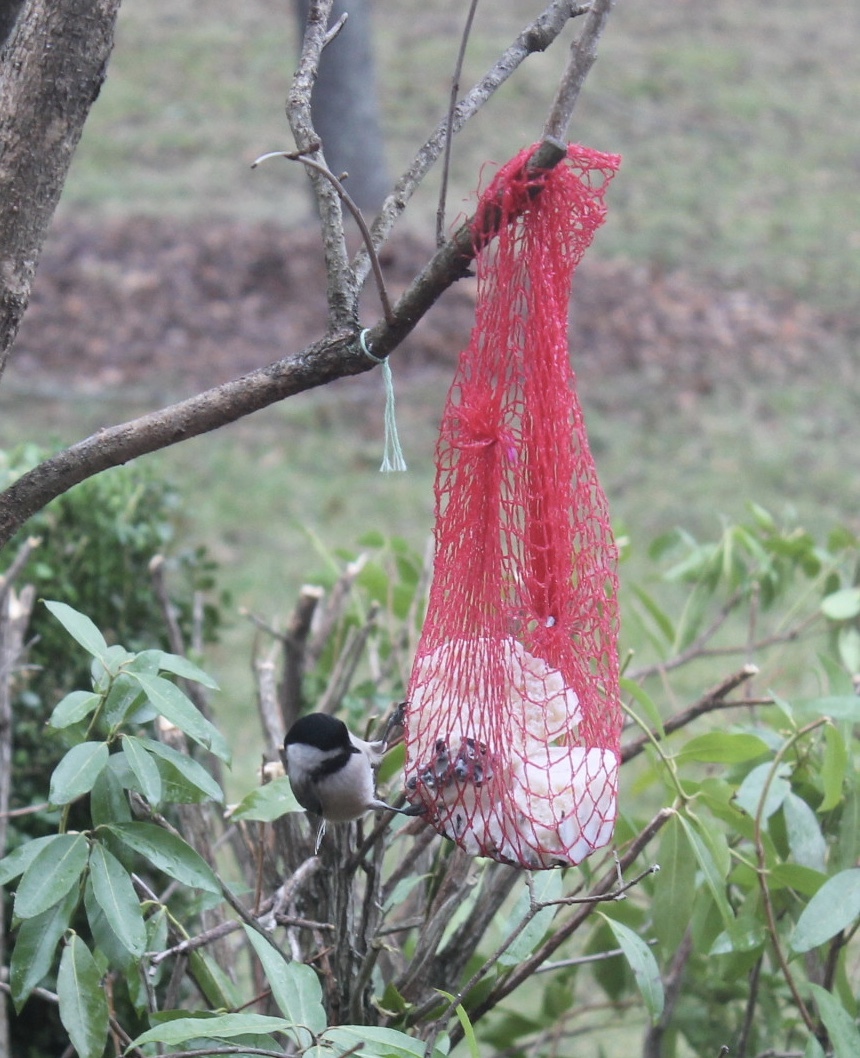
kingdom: Animalia
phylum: Chordata
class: Aves
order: Passeriformes
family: Paridae
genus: Poecile
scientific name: Poecile atricapillus
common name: Black-capped chickadee
